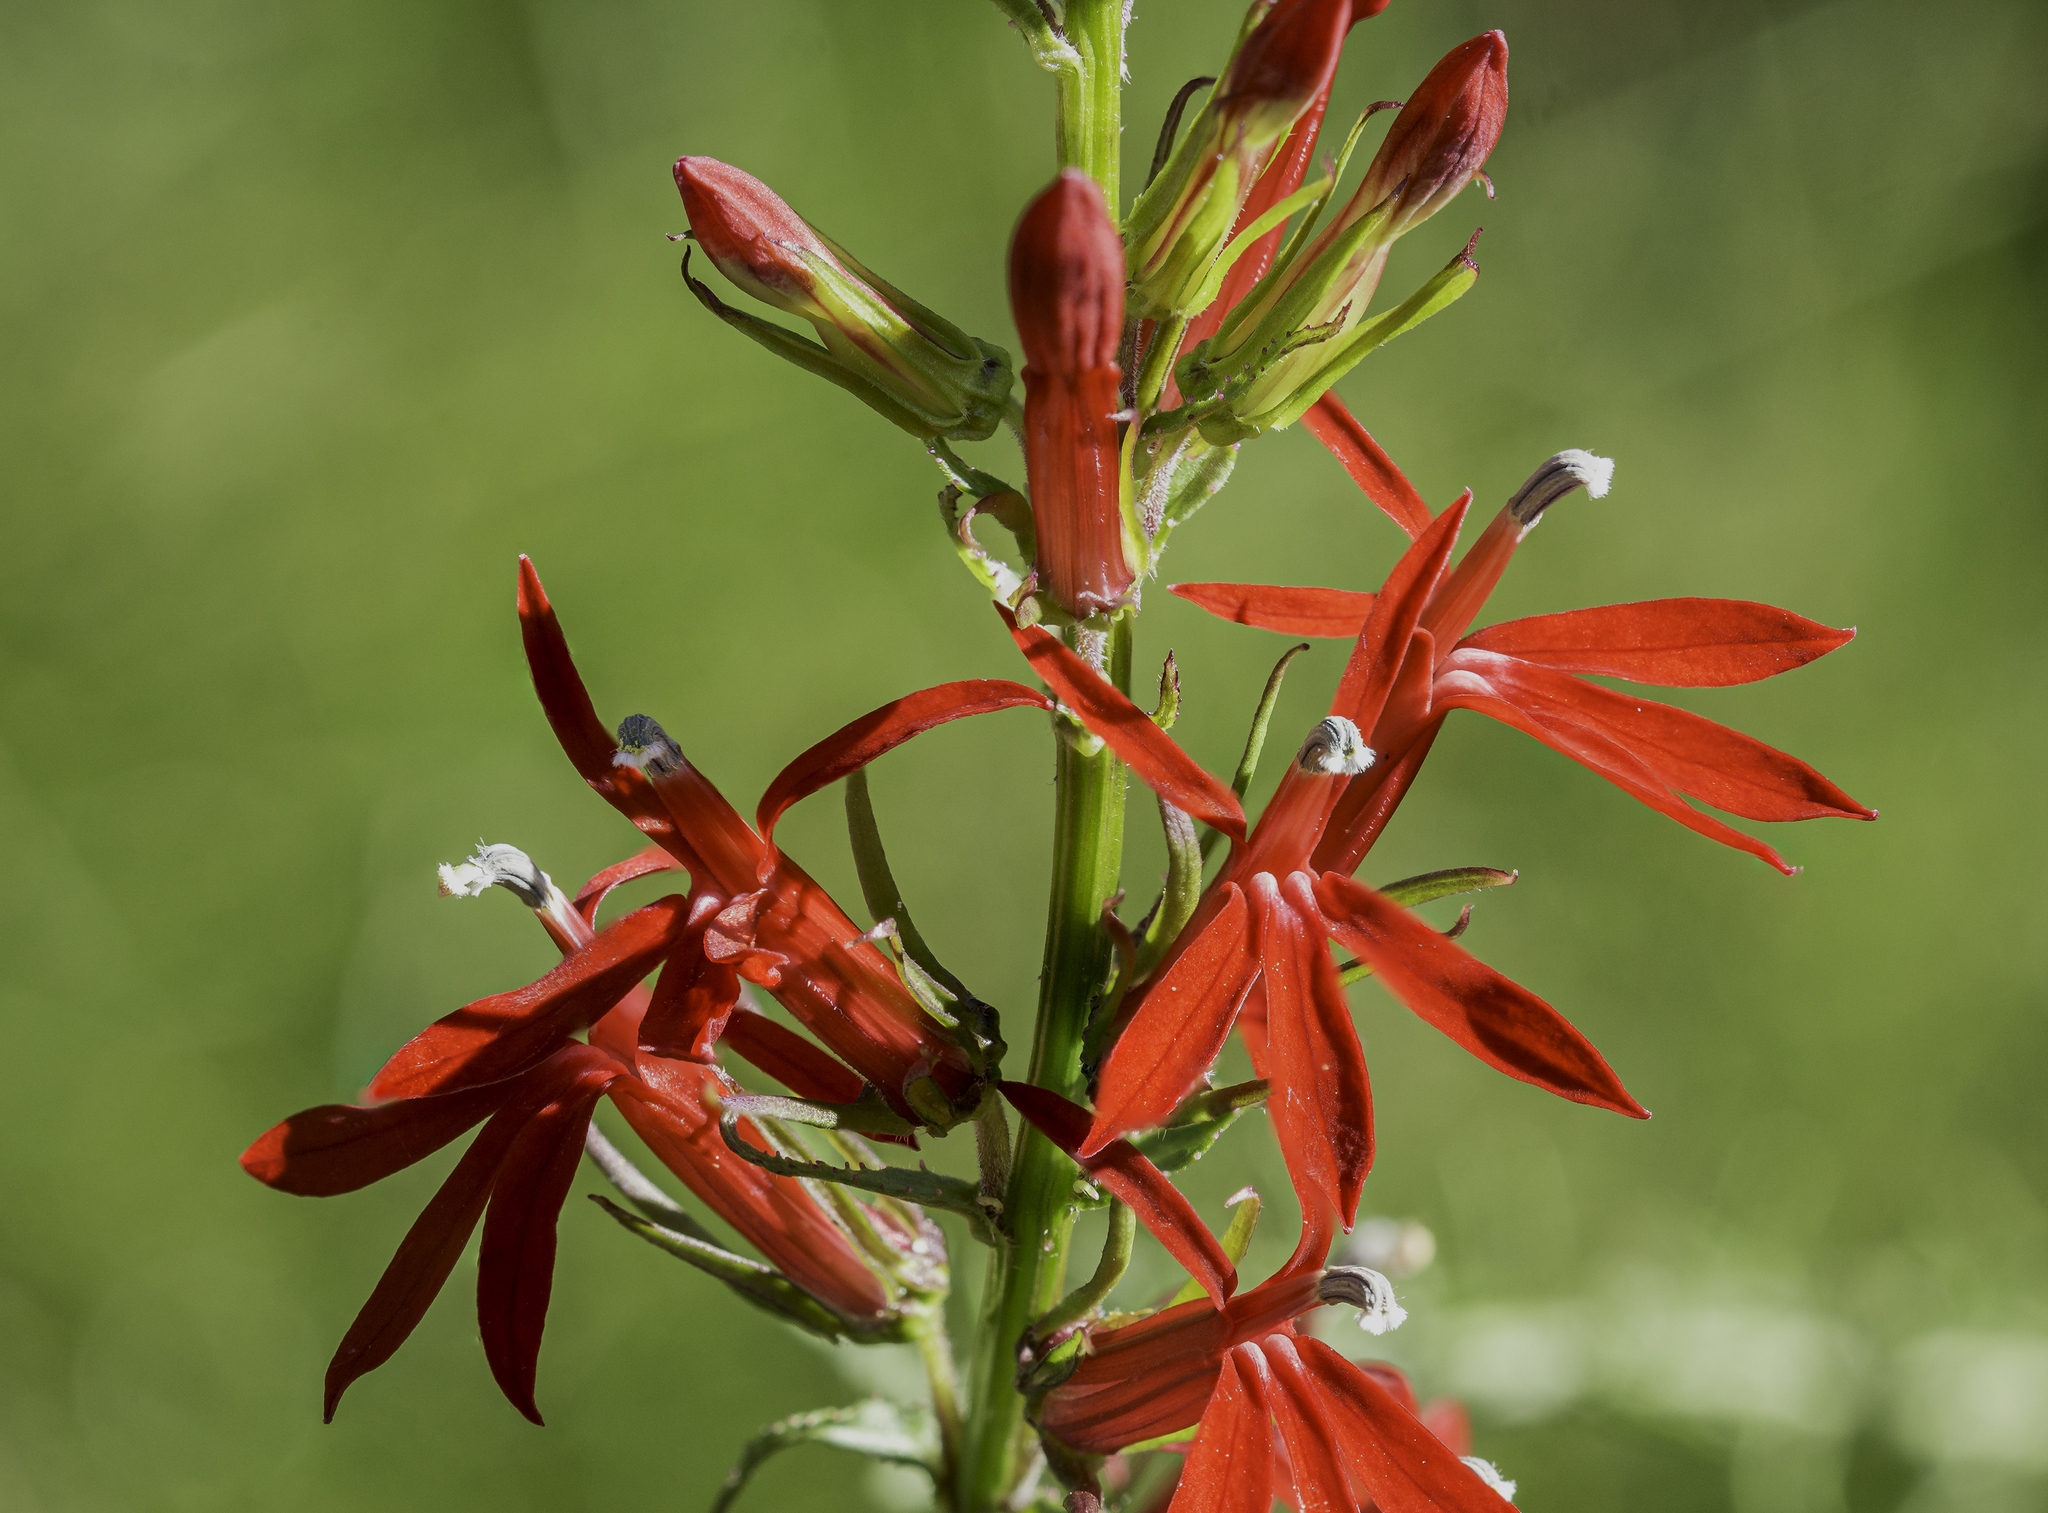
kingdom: Plantae
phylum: Tracheophyta
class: Magnoliopsida
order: Asterales
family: Campanulaceae
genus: Lobelia
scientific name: Lobelia cardinalis
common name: Cardinal flower
